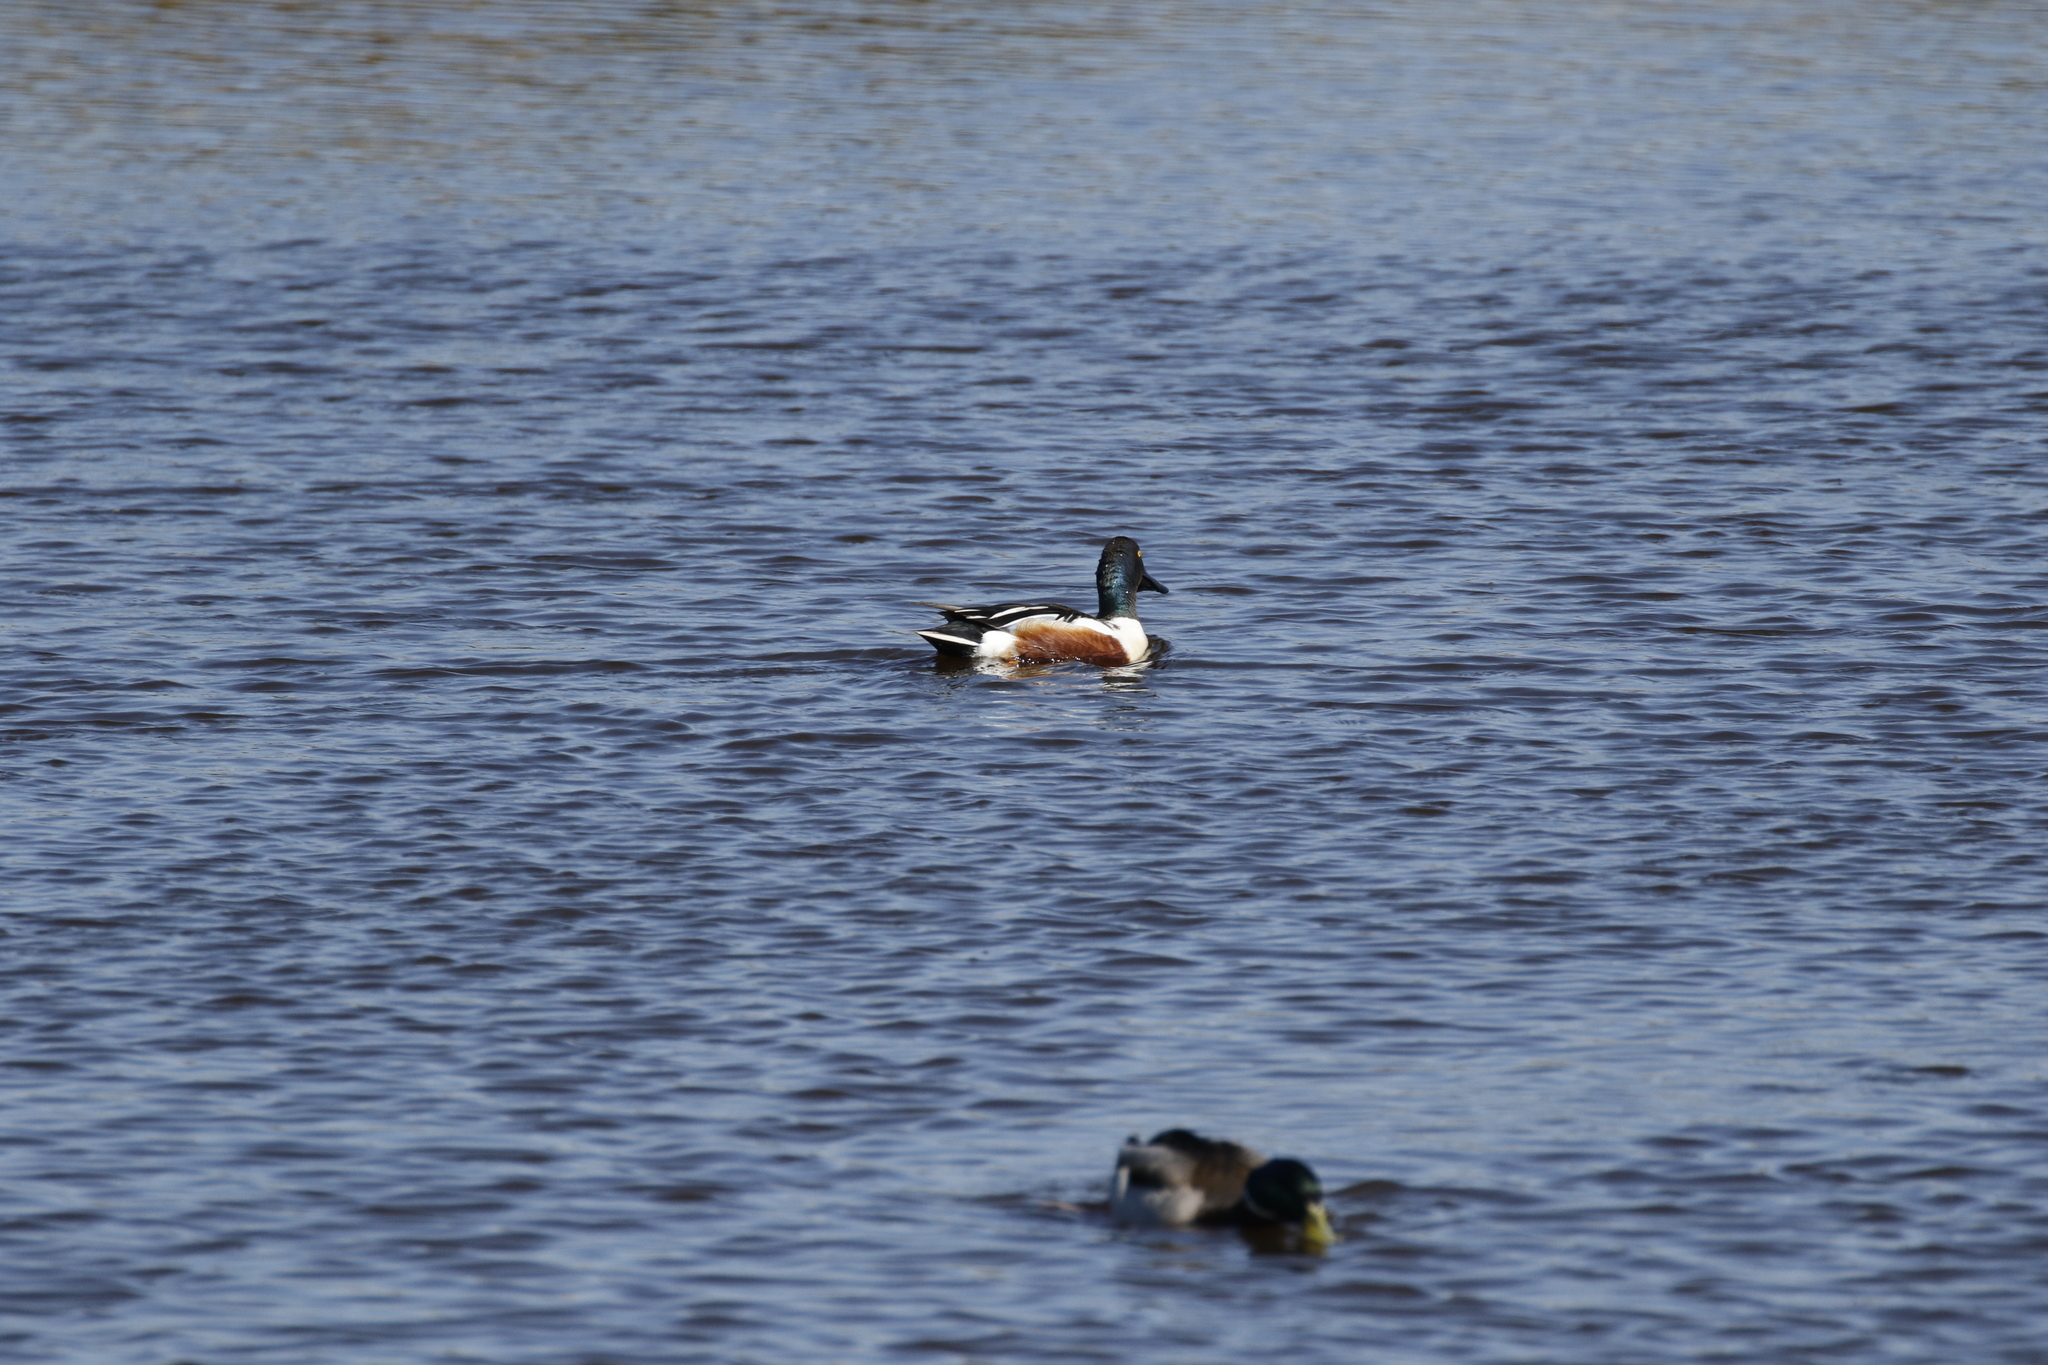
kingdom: Animalia
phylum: Chordata
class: Aves
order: Anseriformes
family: Anatidae
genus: Spatula
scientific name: Spatula clypeata
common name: Northern shoveler
